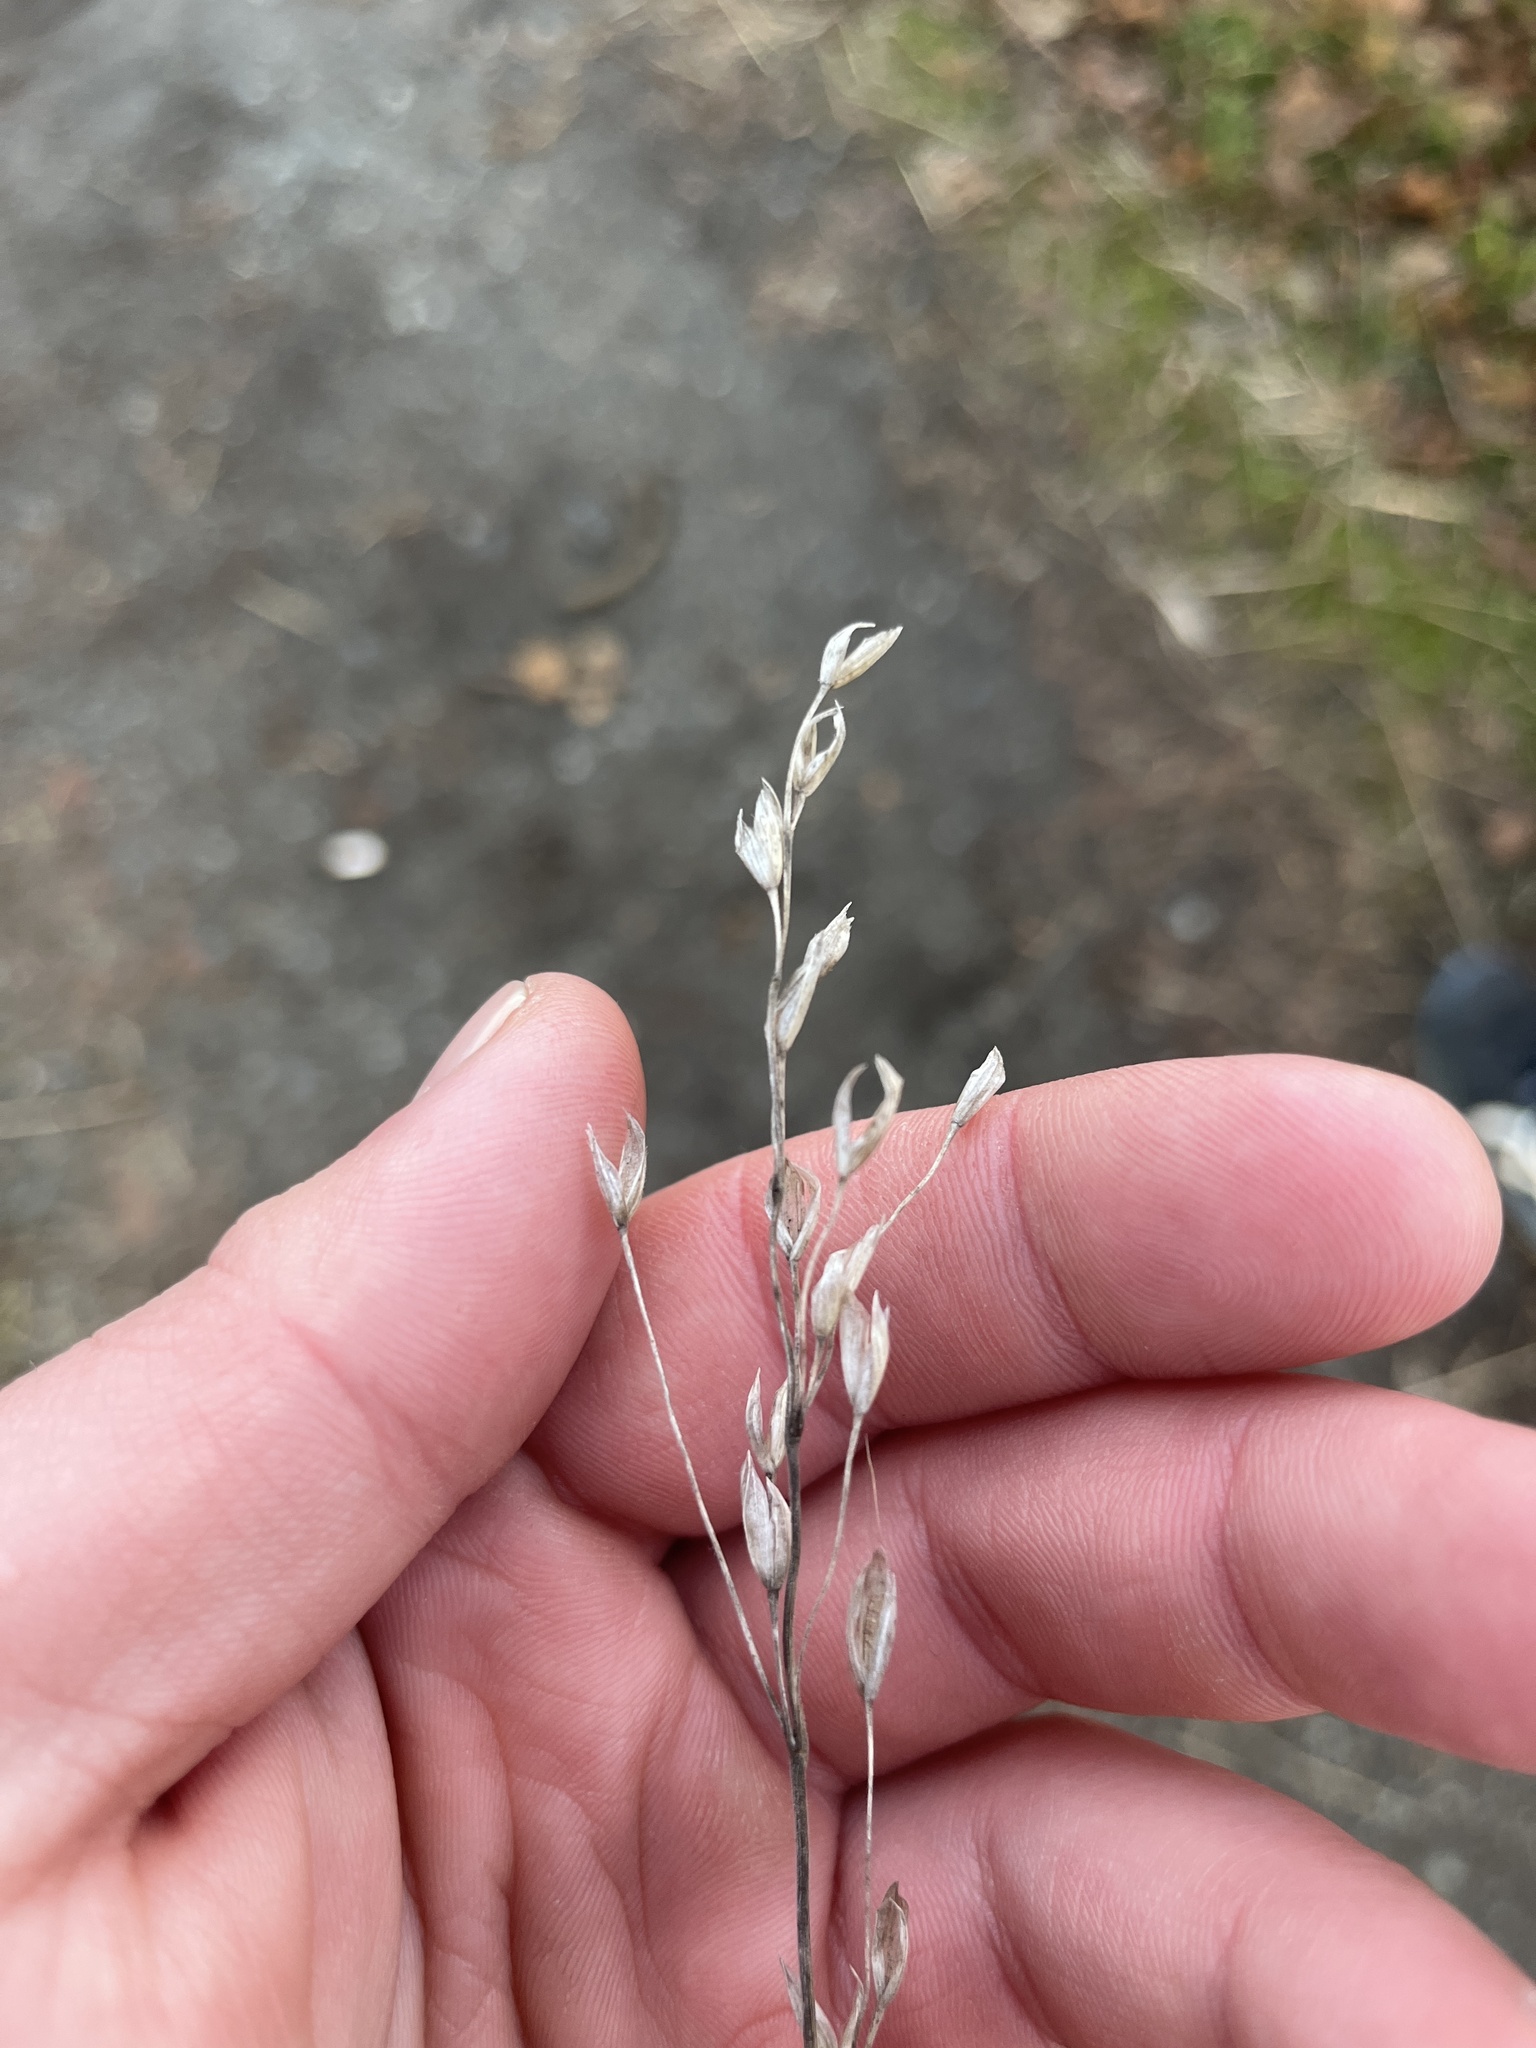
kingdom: Plantae
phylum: Tracheophyta
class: Liliopsida
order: Poales
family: Poaceae
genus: Bromus
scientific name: Bromus hordeaceus
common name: Soft brome
